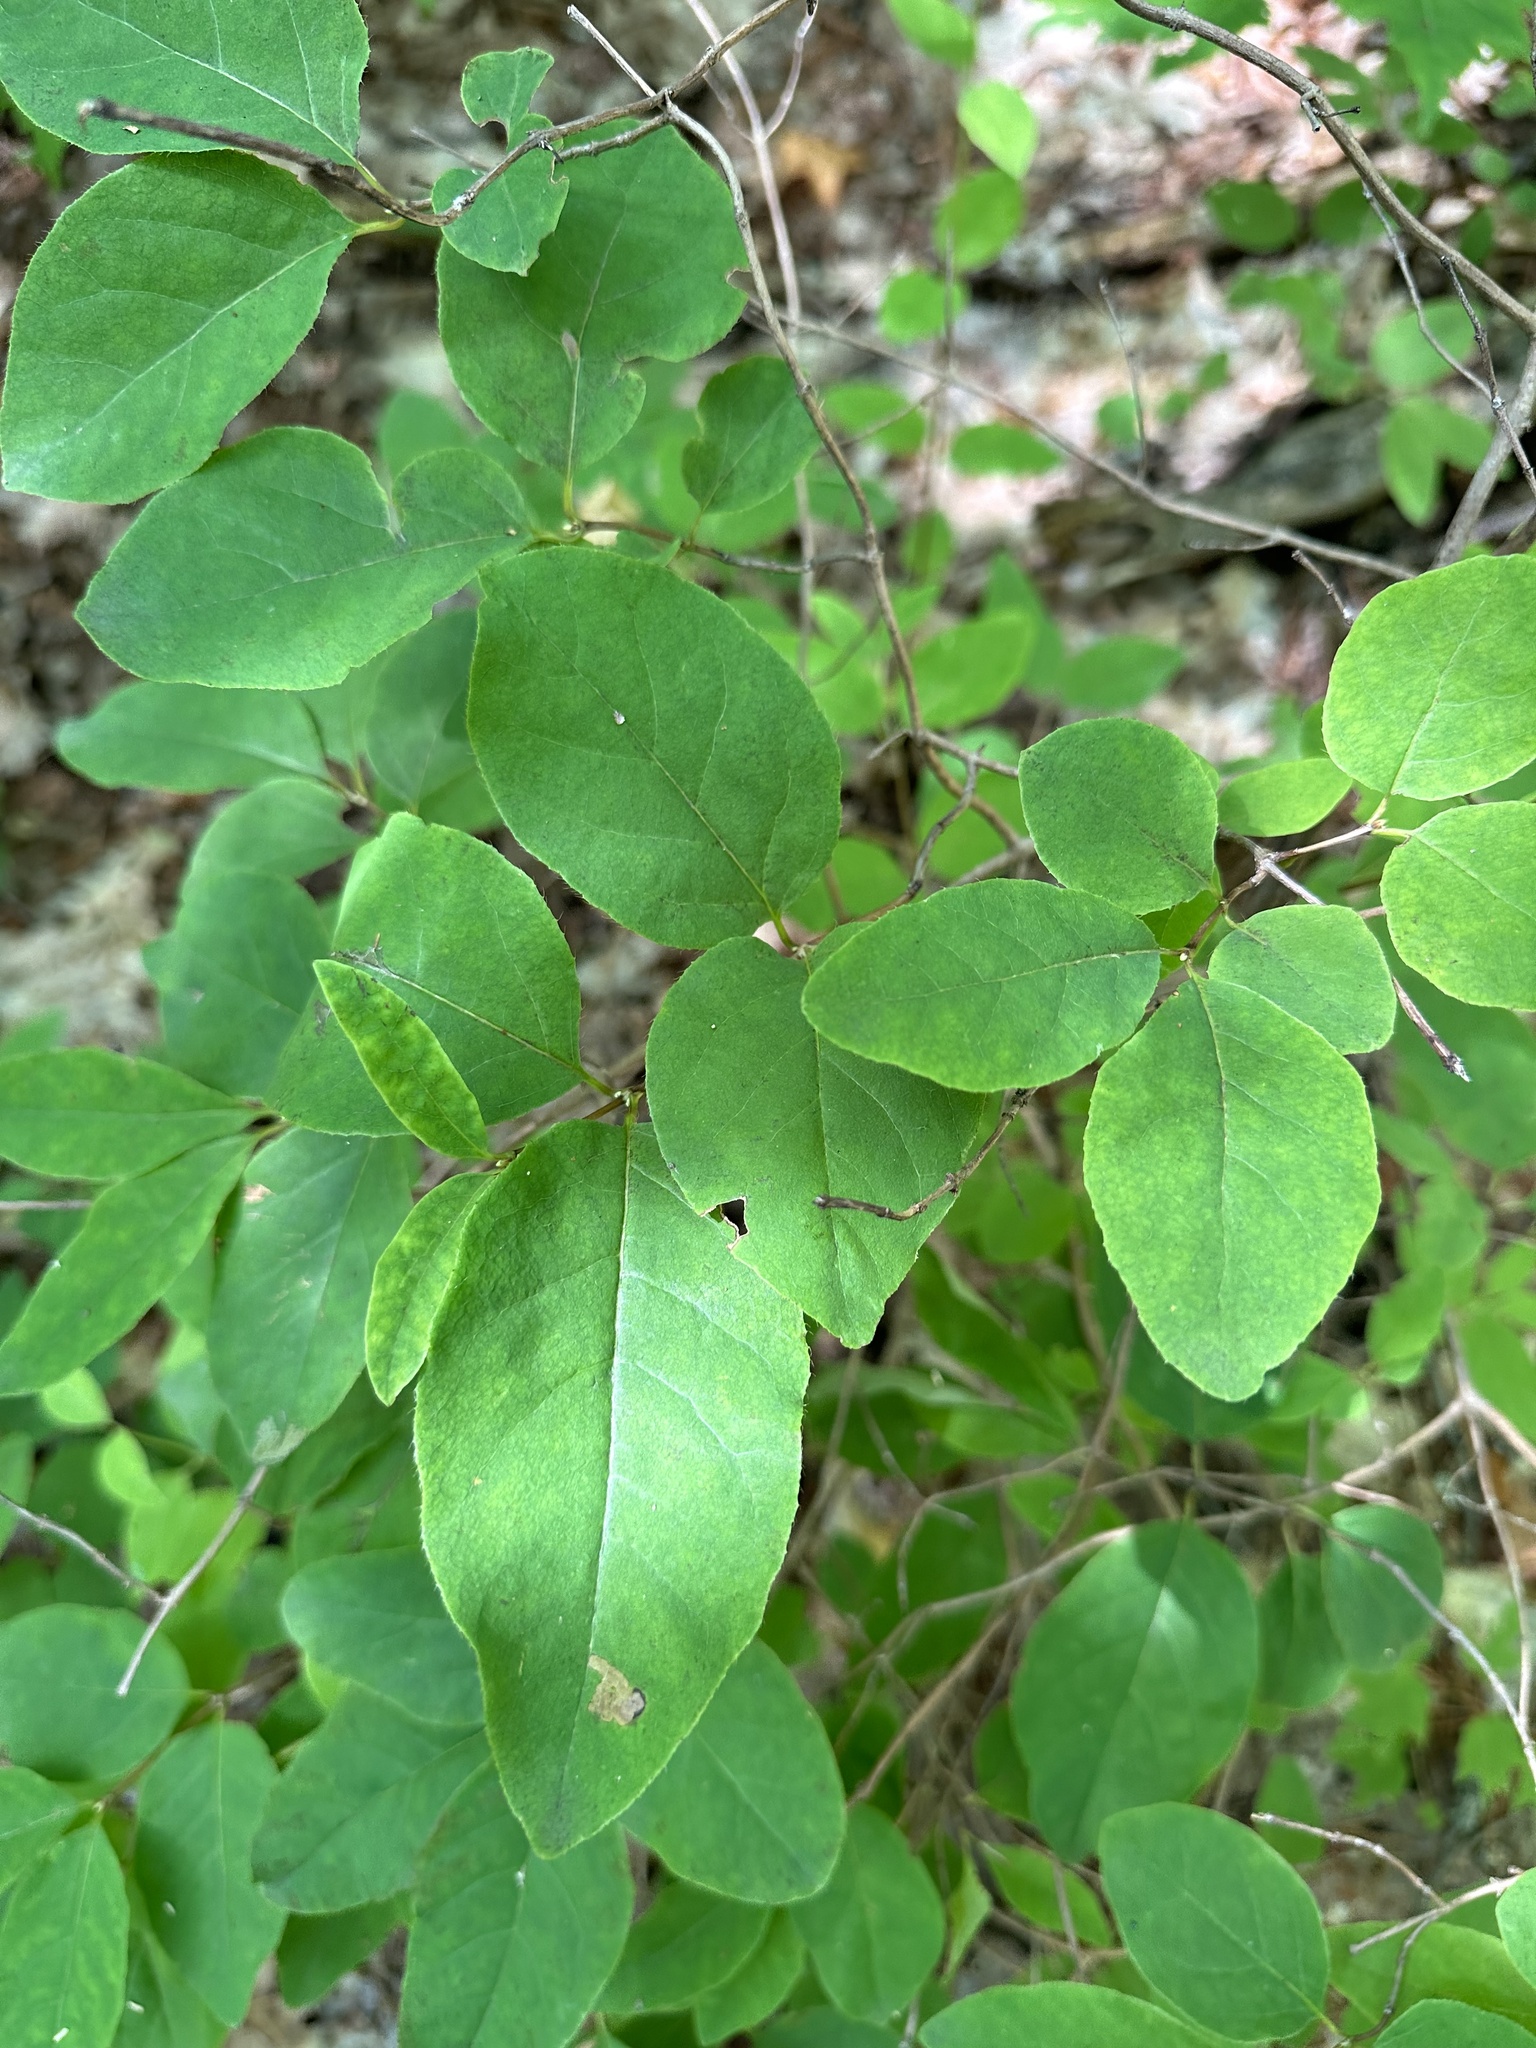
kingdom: Plantae
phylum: Tracheophyta
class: Magnoliopsida
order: Dipsacales
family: Caprifoliaceae
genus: Lonicera
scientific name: Lonicera canadensis
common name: American fly-honeysuckle
